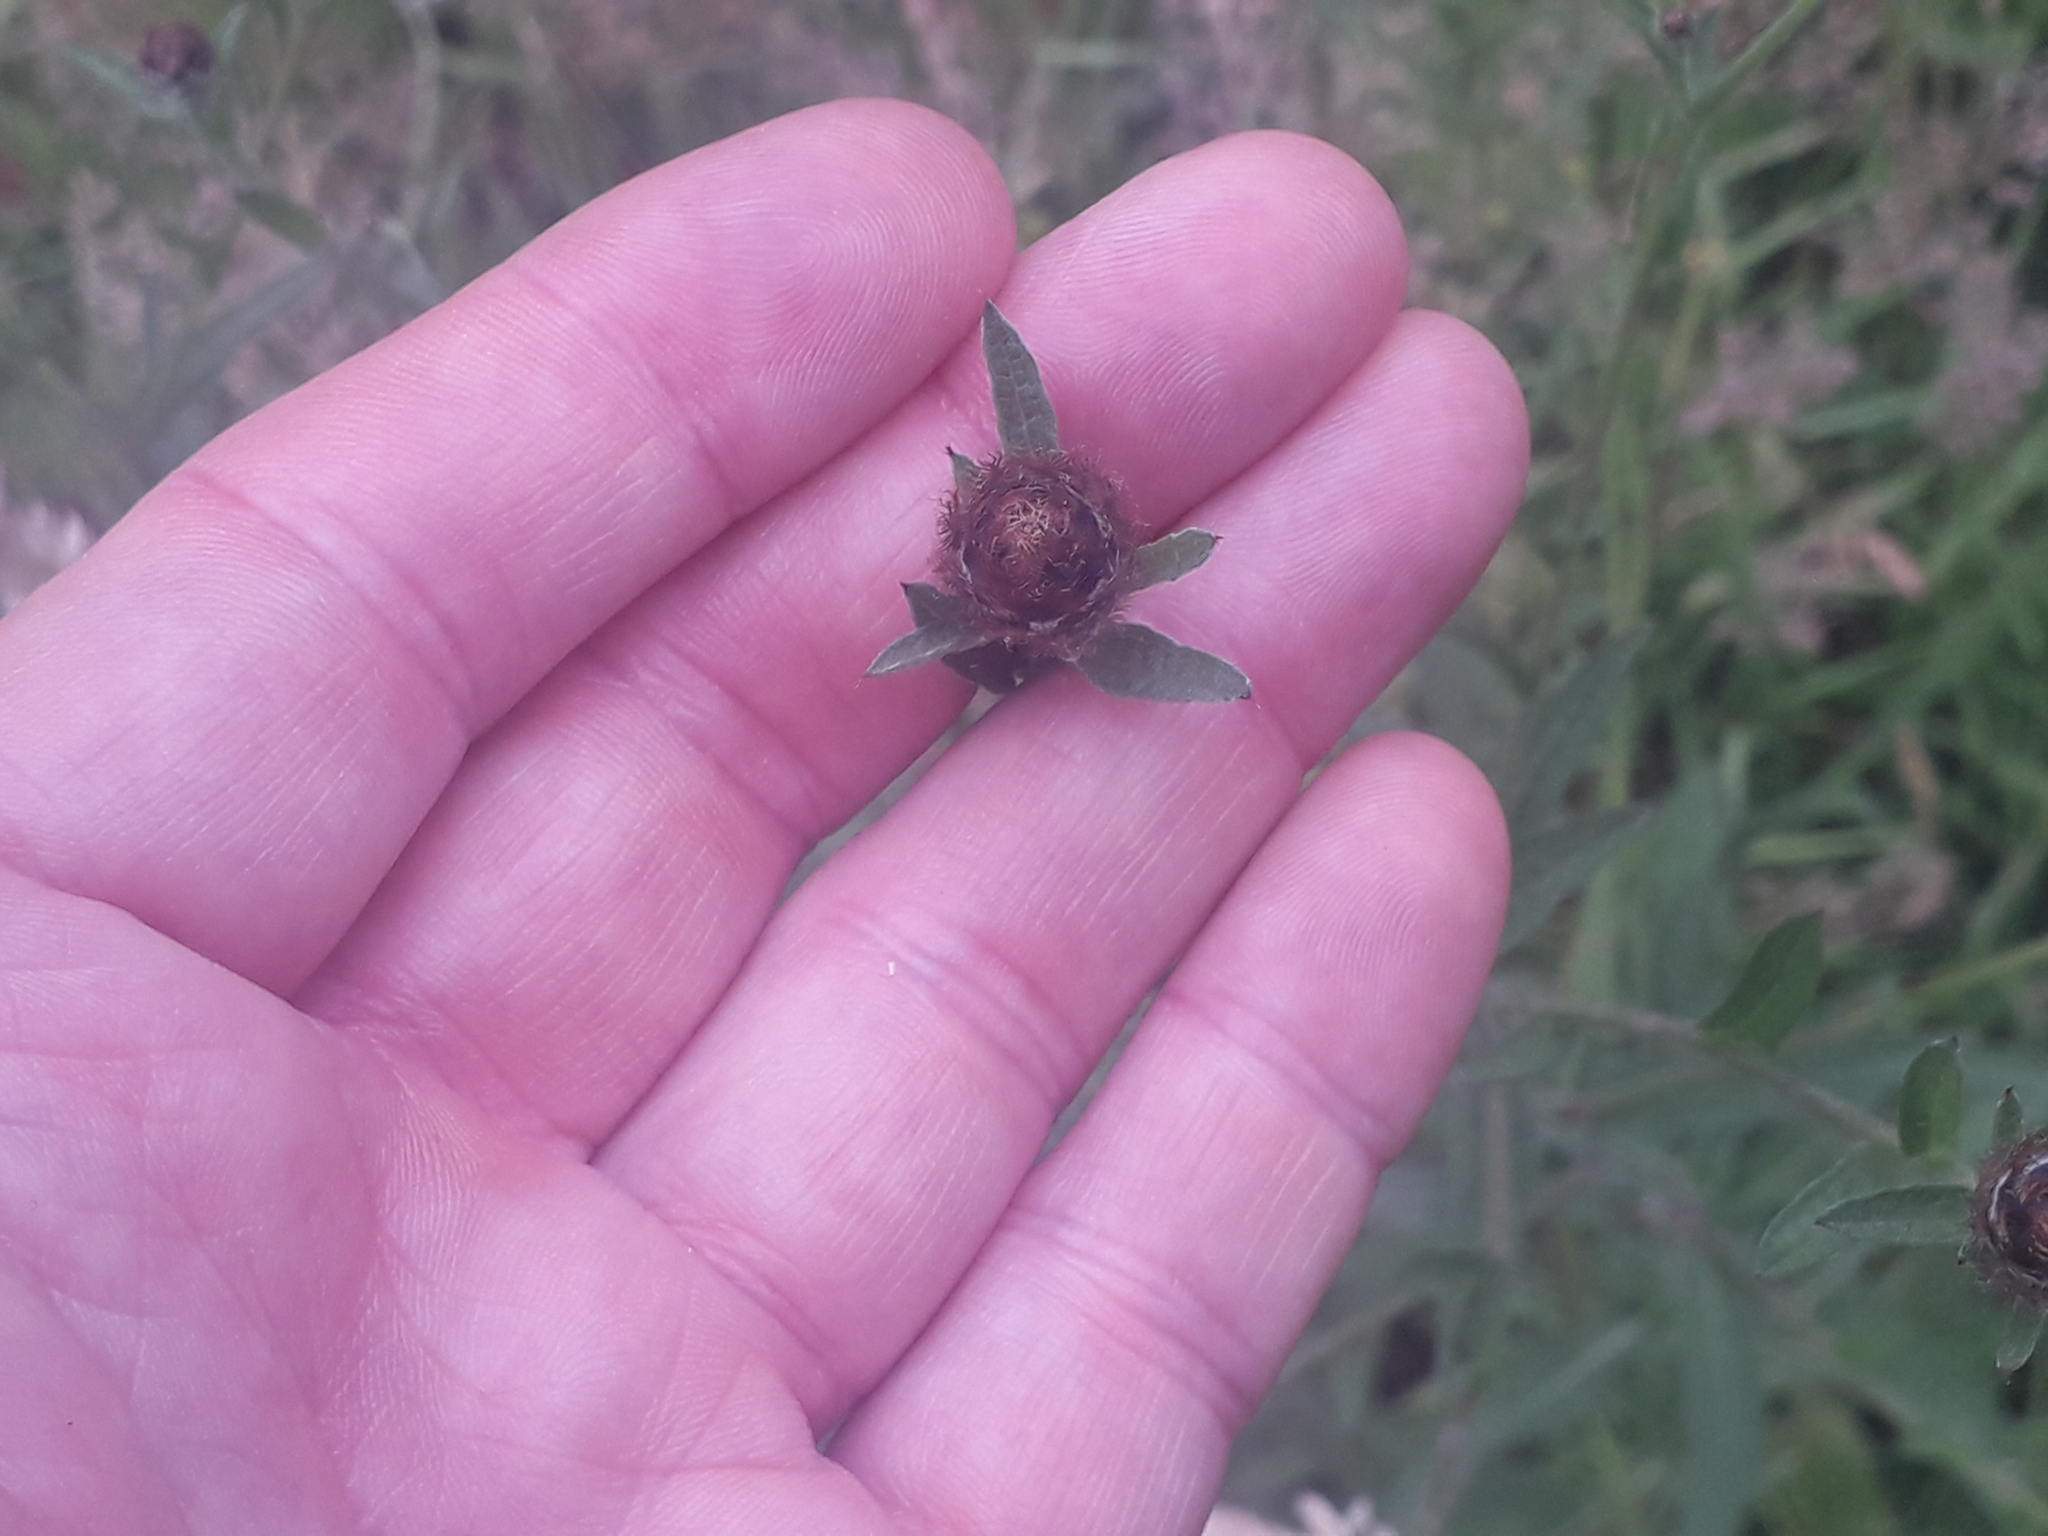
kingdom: Plantae
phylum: Tracheophyta
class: Magnoliopsida
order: Asterales
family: Asteraceae
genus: Centaurea
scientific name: Centaurea nigra
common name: Lesser knapweed
